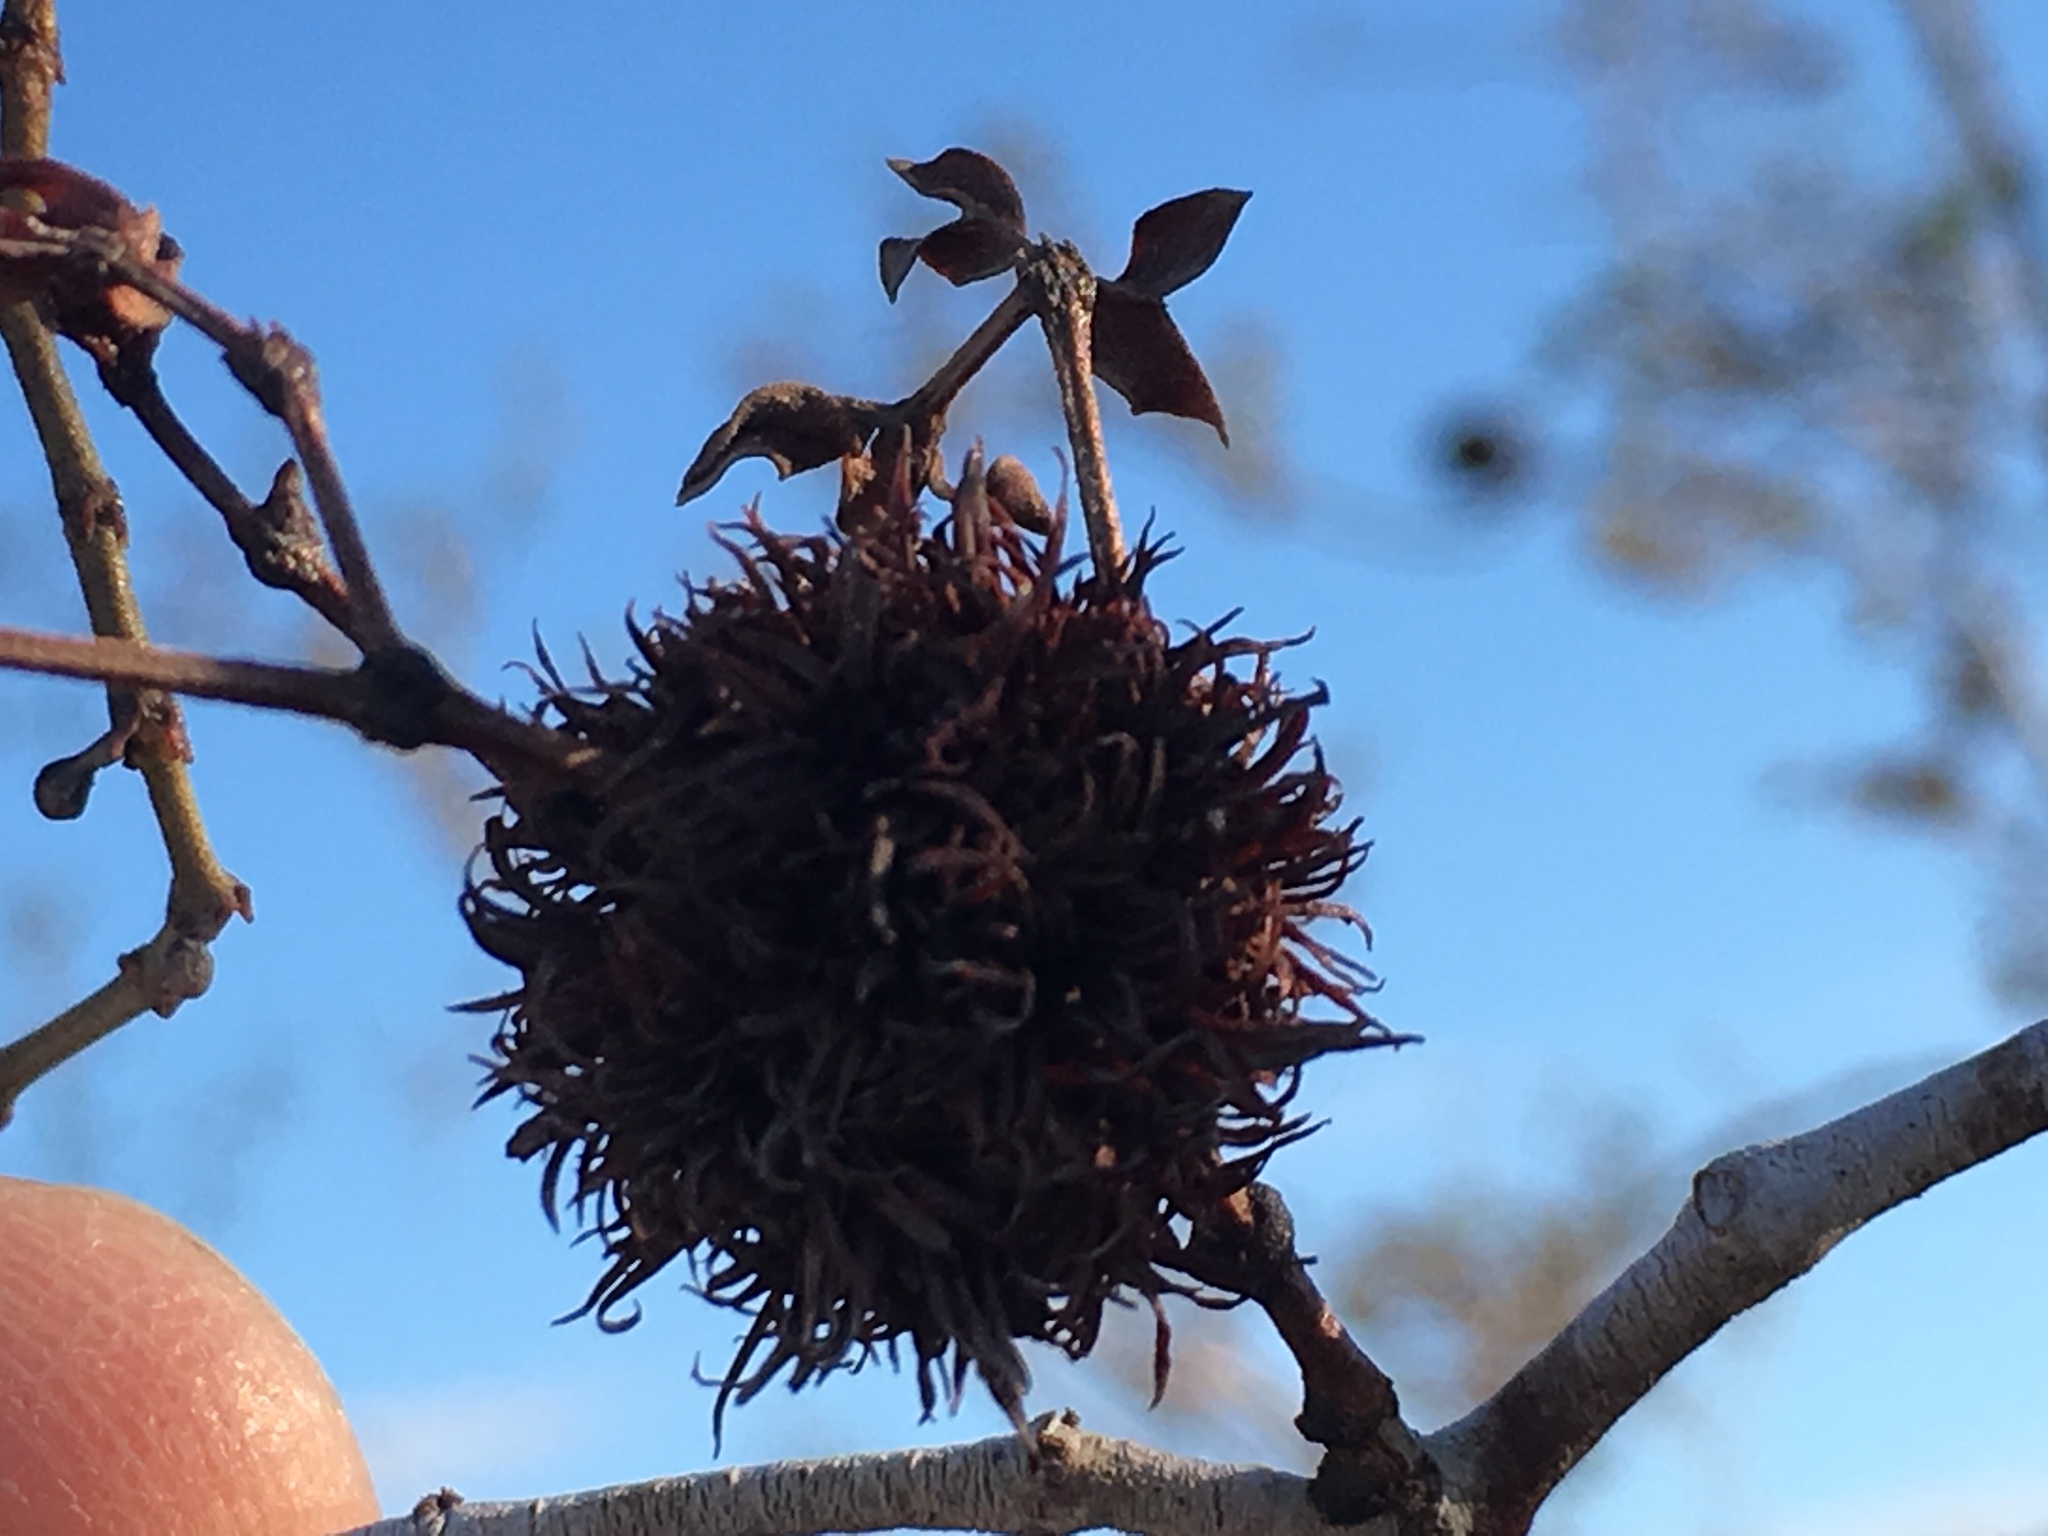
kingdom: Animalia
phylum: Arthropoda
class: Insecta
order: Diptera
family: Cecidomyiidae
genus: Asphondylia
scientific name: Asphondylia auripila
